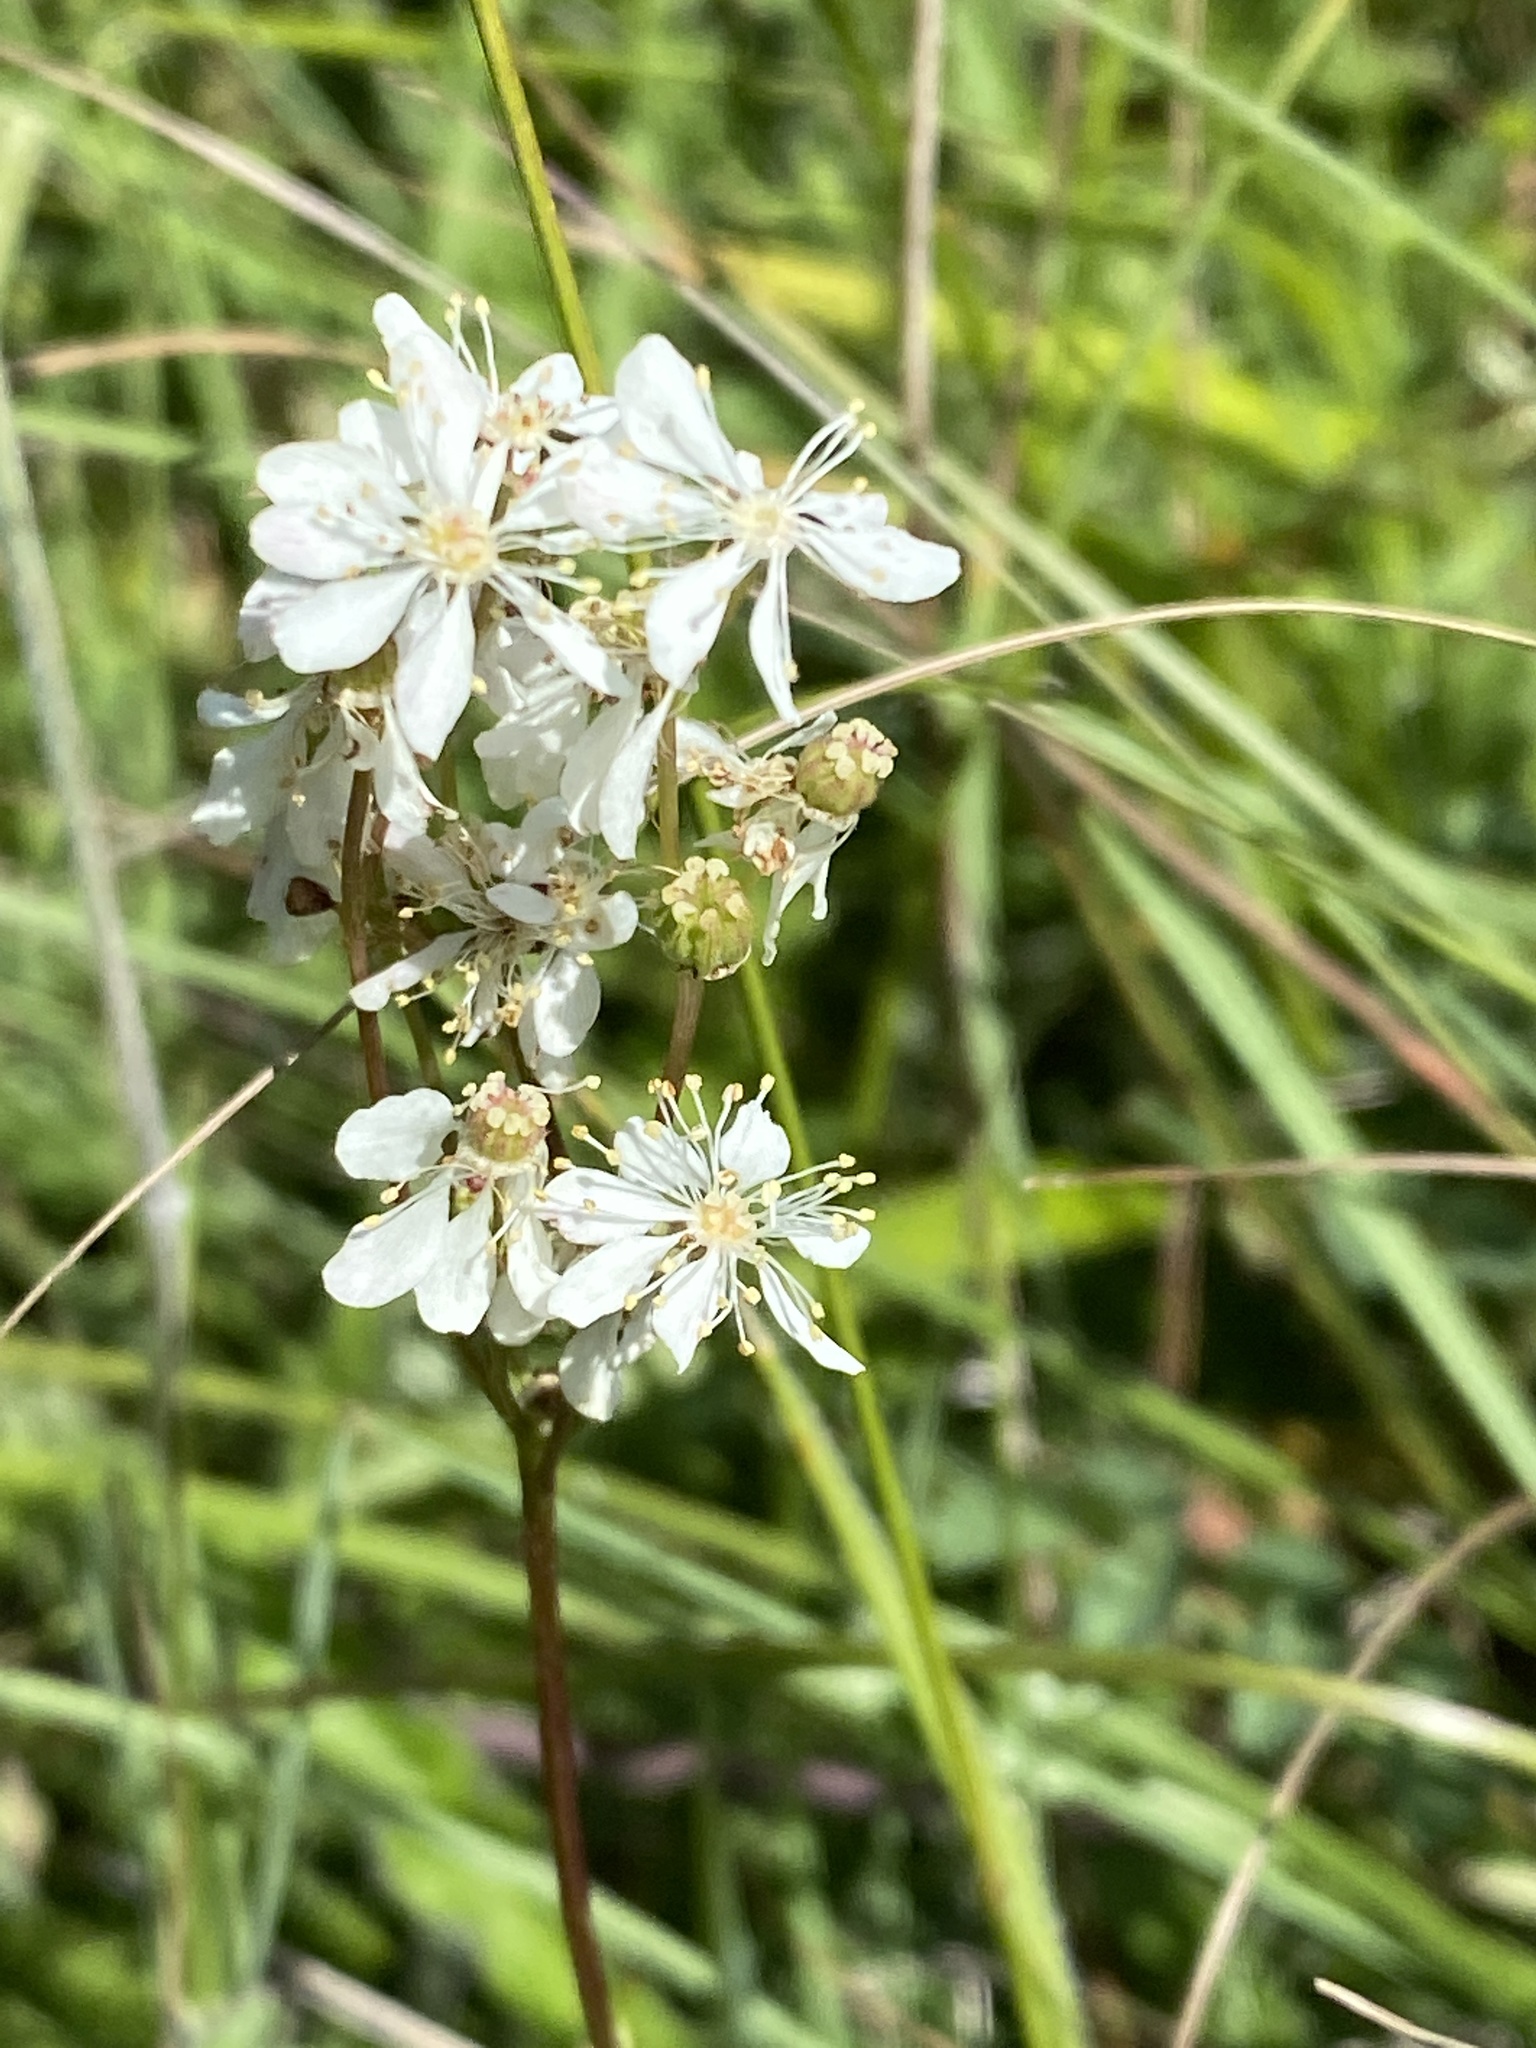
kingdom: Plantae
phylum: Tracheophyta
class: Magnoliopsida
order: Rosales
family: Rosaceae
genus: Filipendula
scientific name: Filipendula vulgaris
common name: Dropwort
